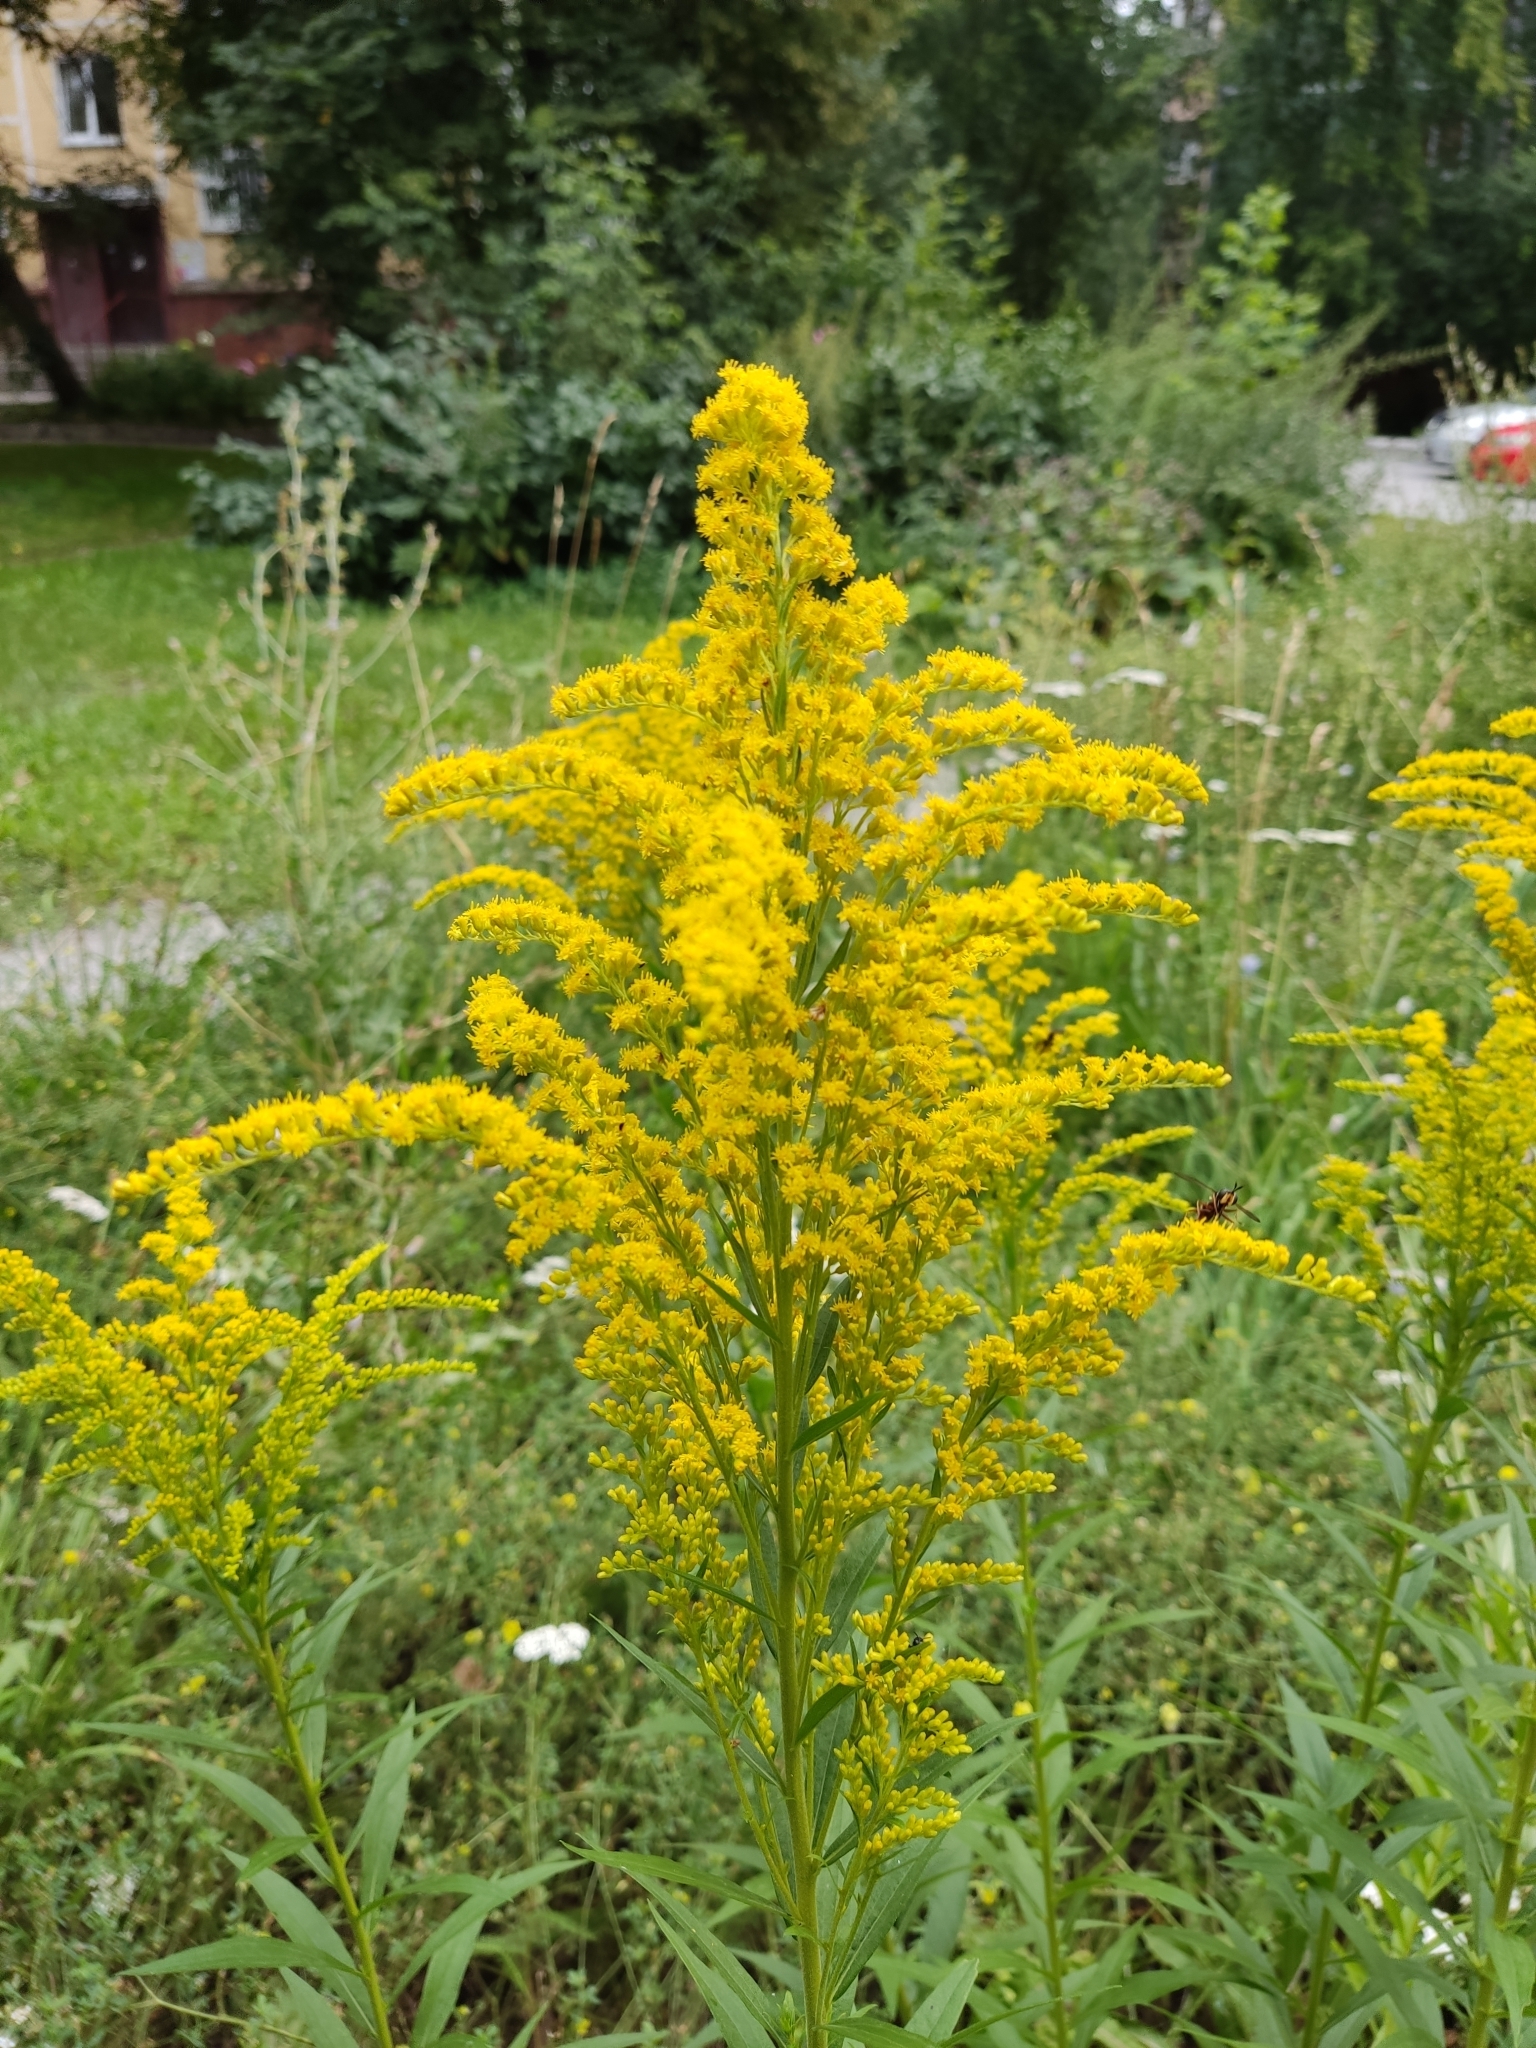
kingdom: Plantae
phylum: Tracheophyta
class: Magnoliopsida
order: Asterales
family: Asteraceae
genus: Solidago
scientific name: Solidago canadensis
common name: Canada goldenrod
